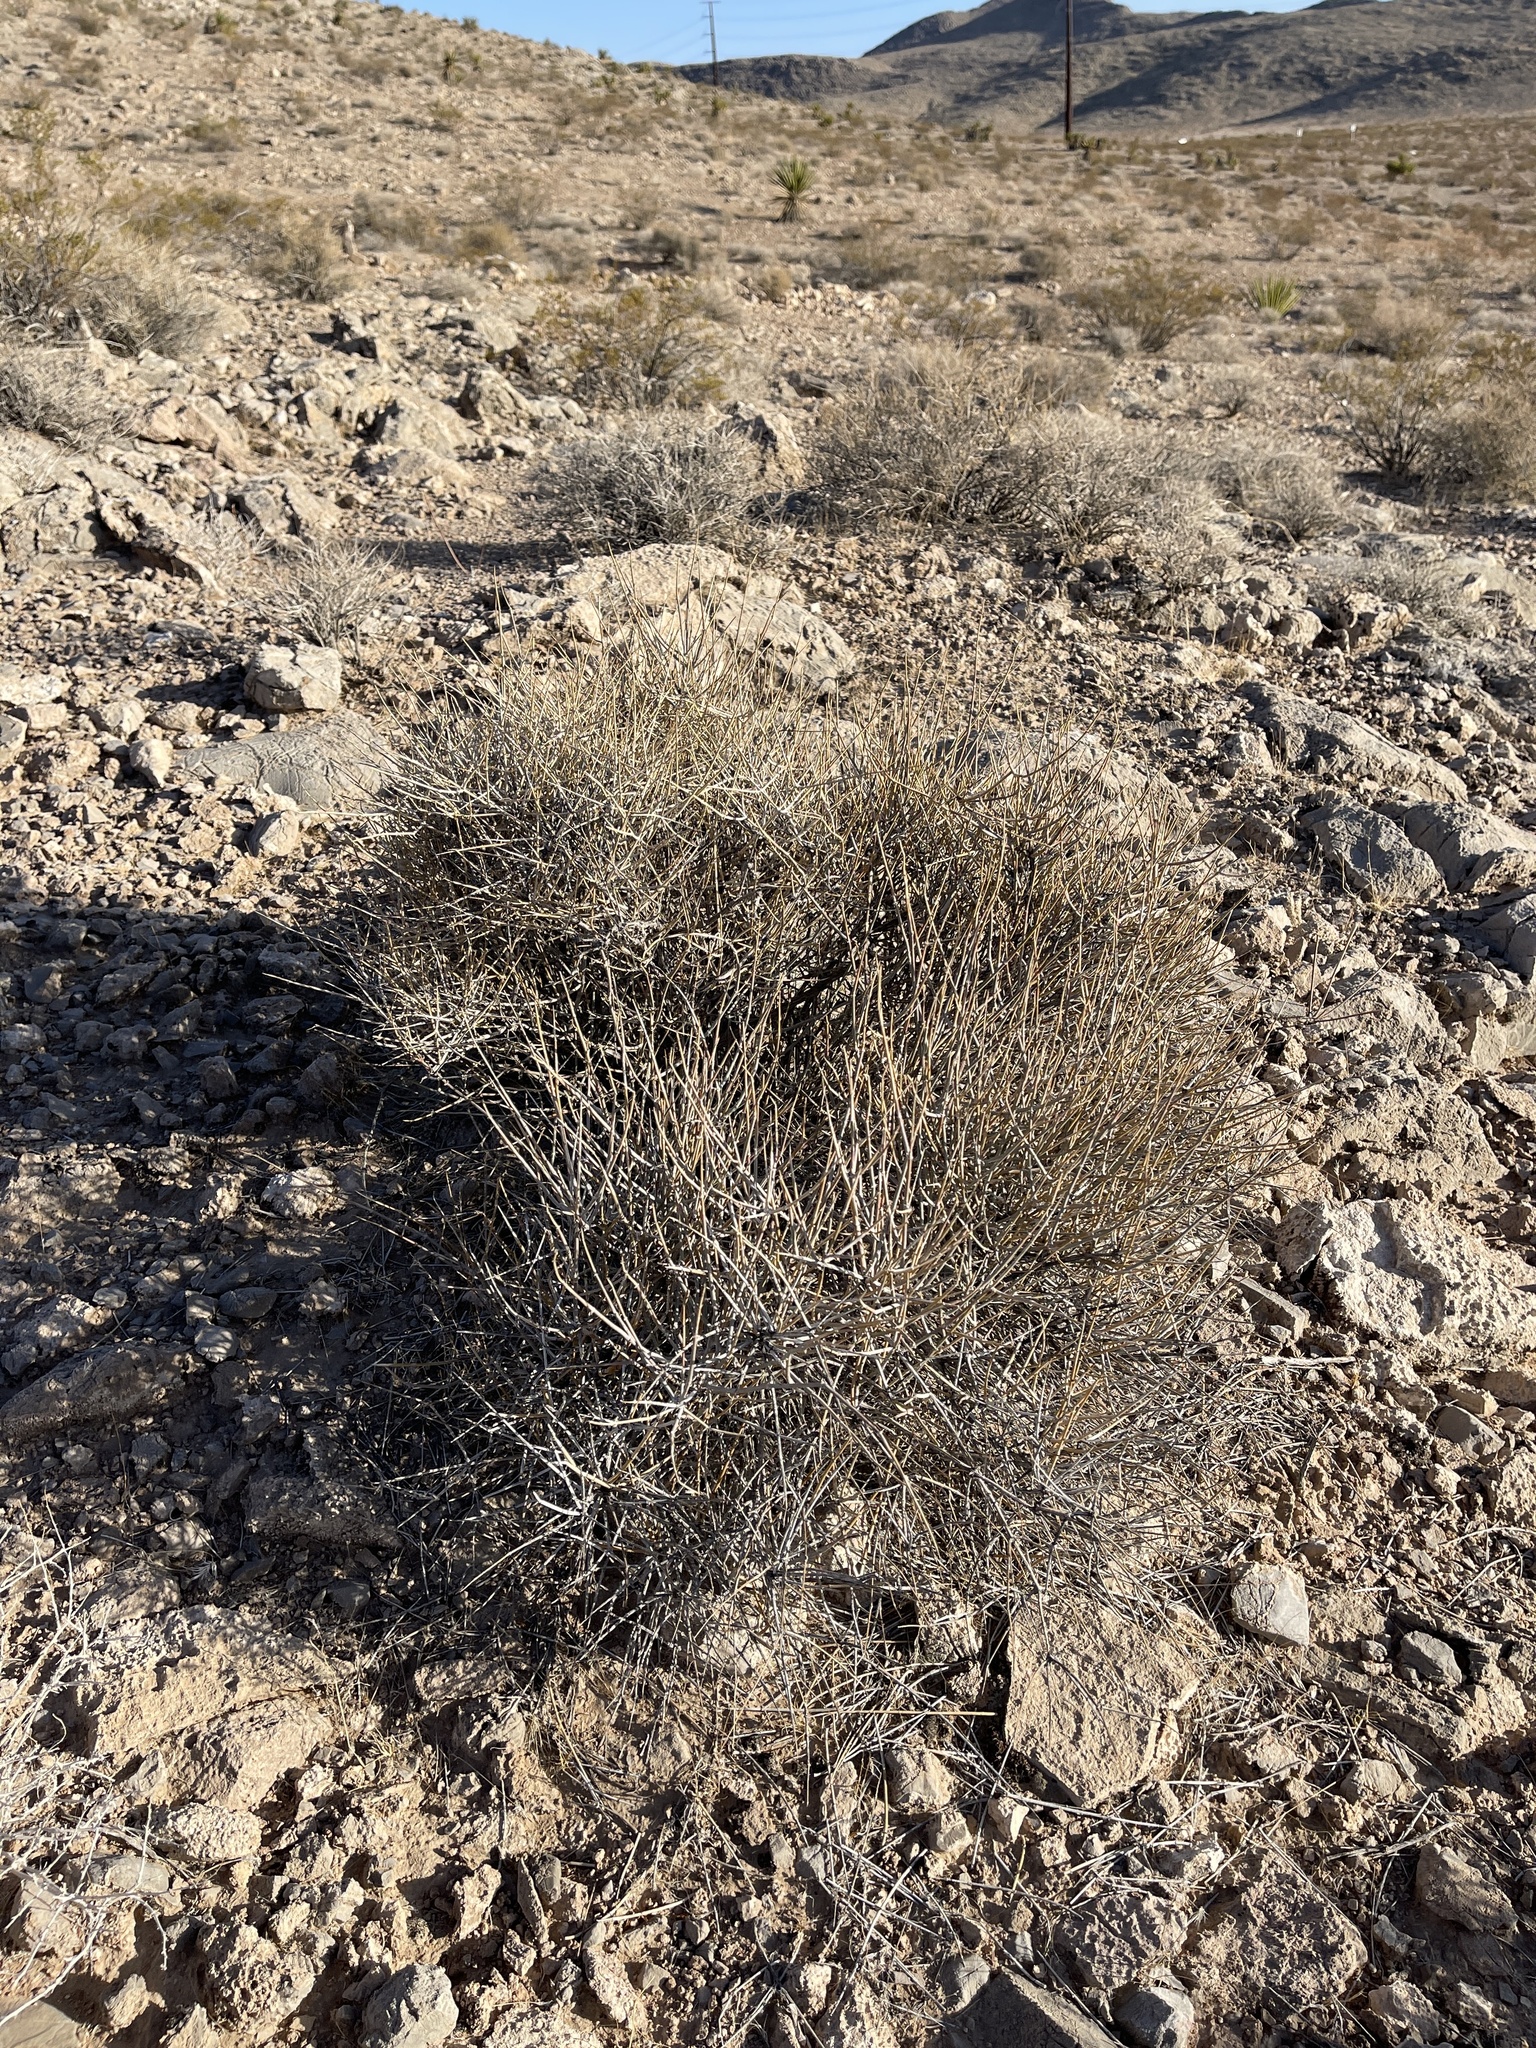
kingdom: Plantae
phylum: Tracheophyta
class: Gnetopsida
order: Ephedrales
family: Ephedraceae
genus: Ephedra
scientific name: Ephedra nevadensis
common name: Gray ephedra
